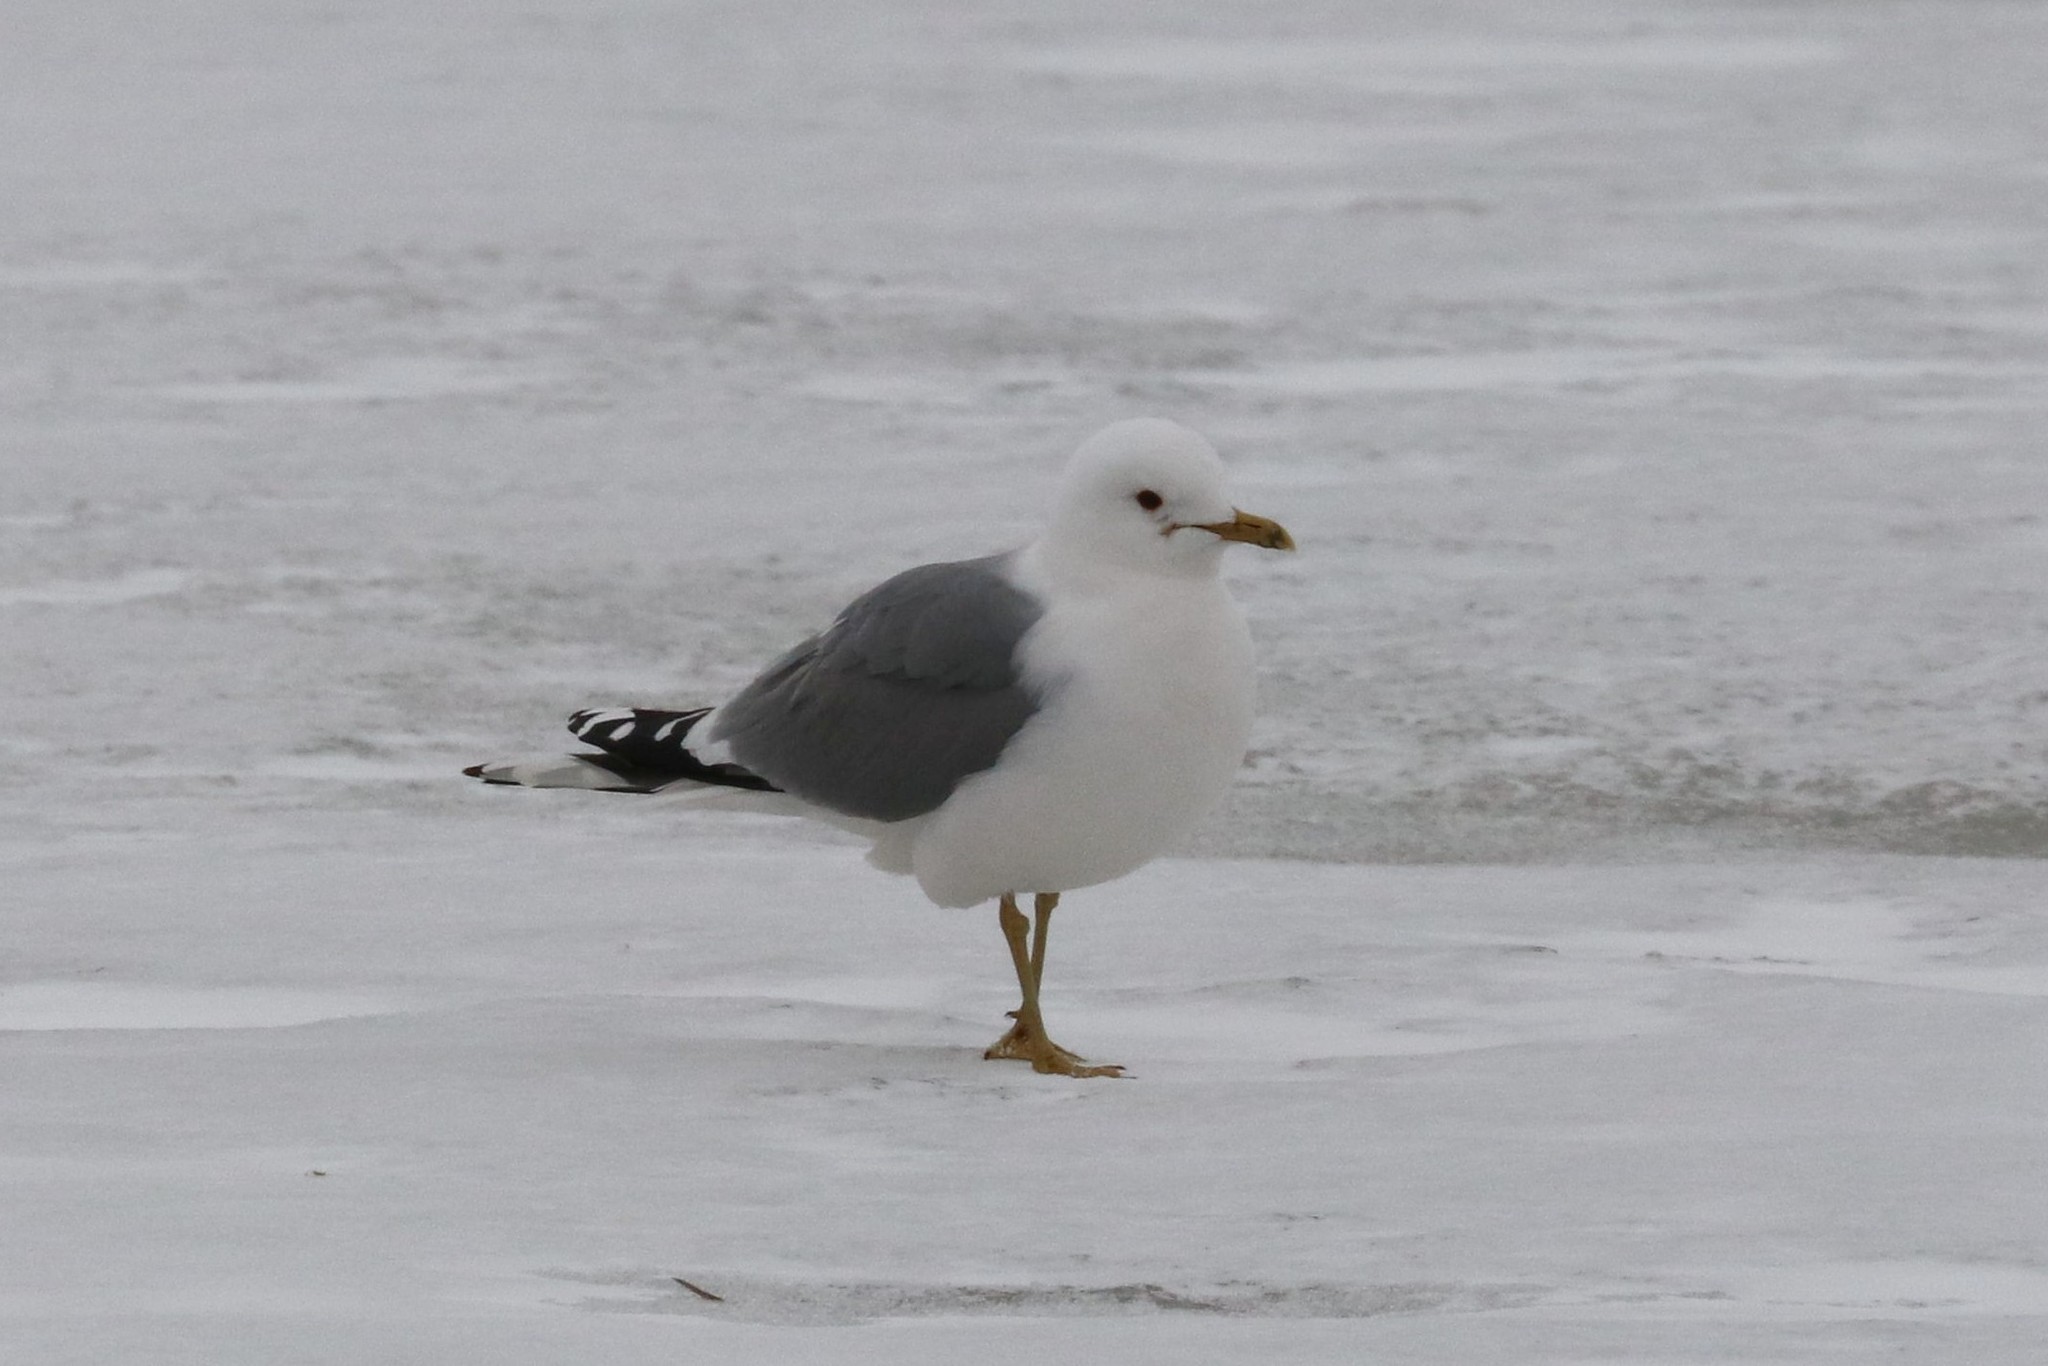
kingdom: Animalia
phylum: Chordata
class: Aves
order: Charadriiformes
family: Laridae
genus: Larus
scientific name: Larus canus
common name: Mew gull
